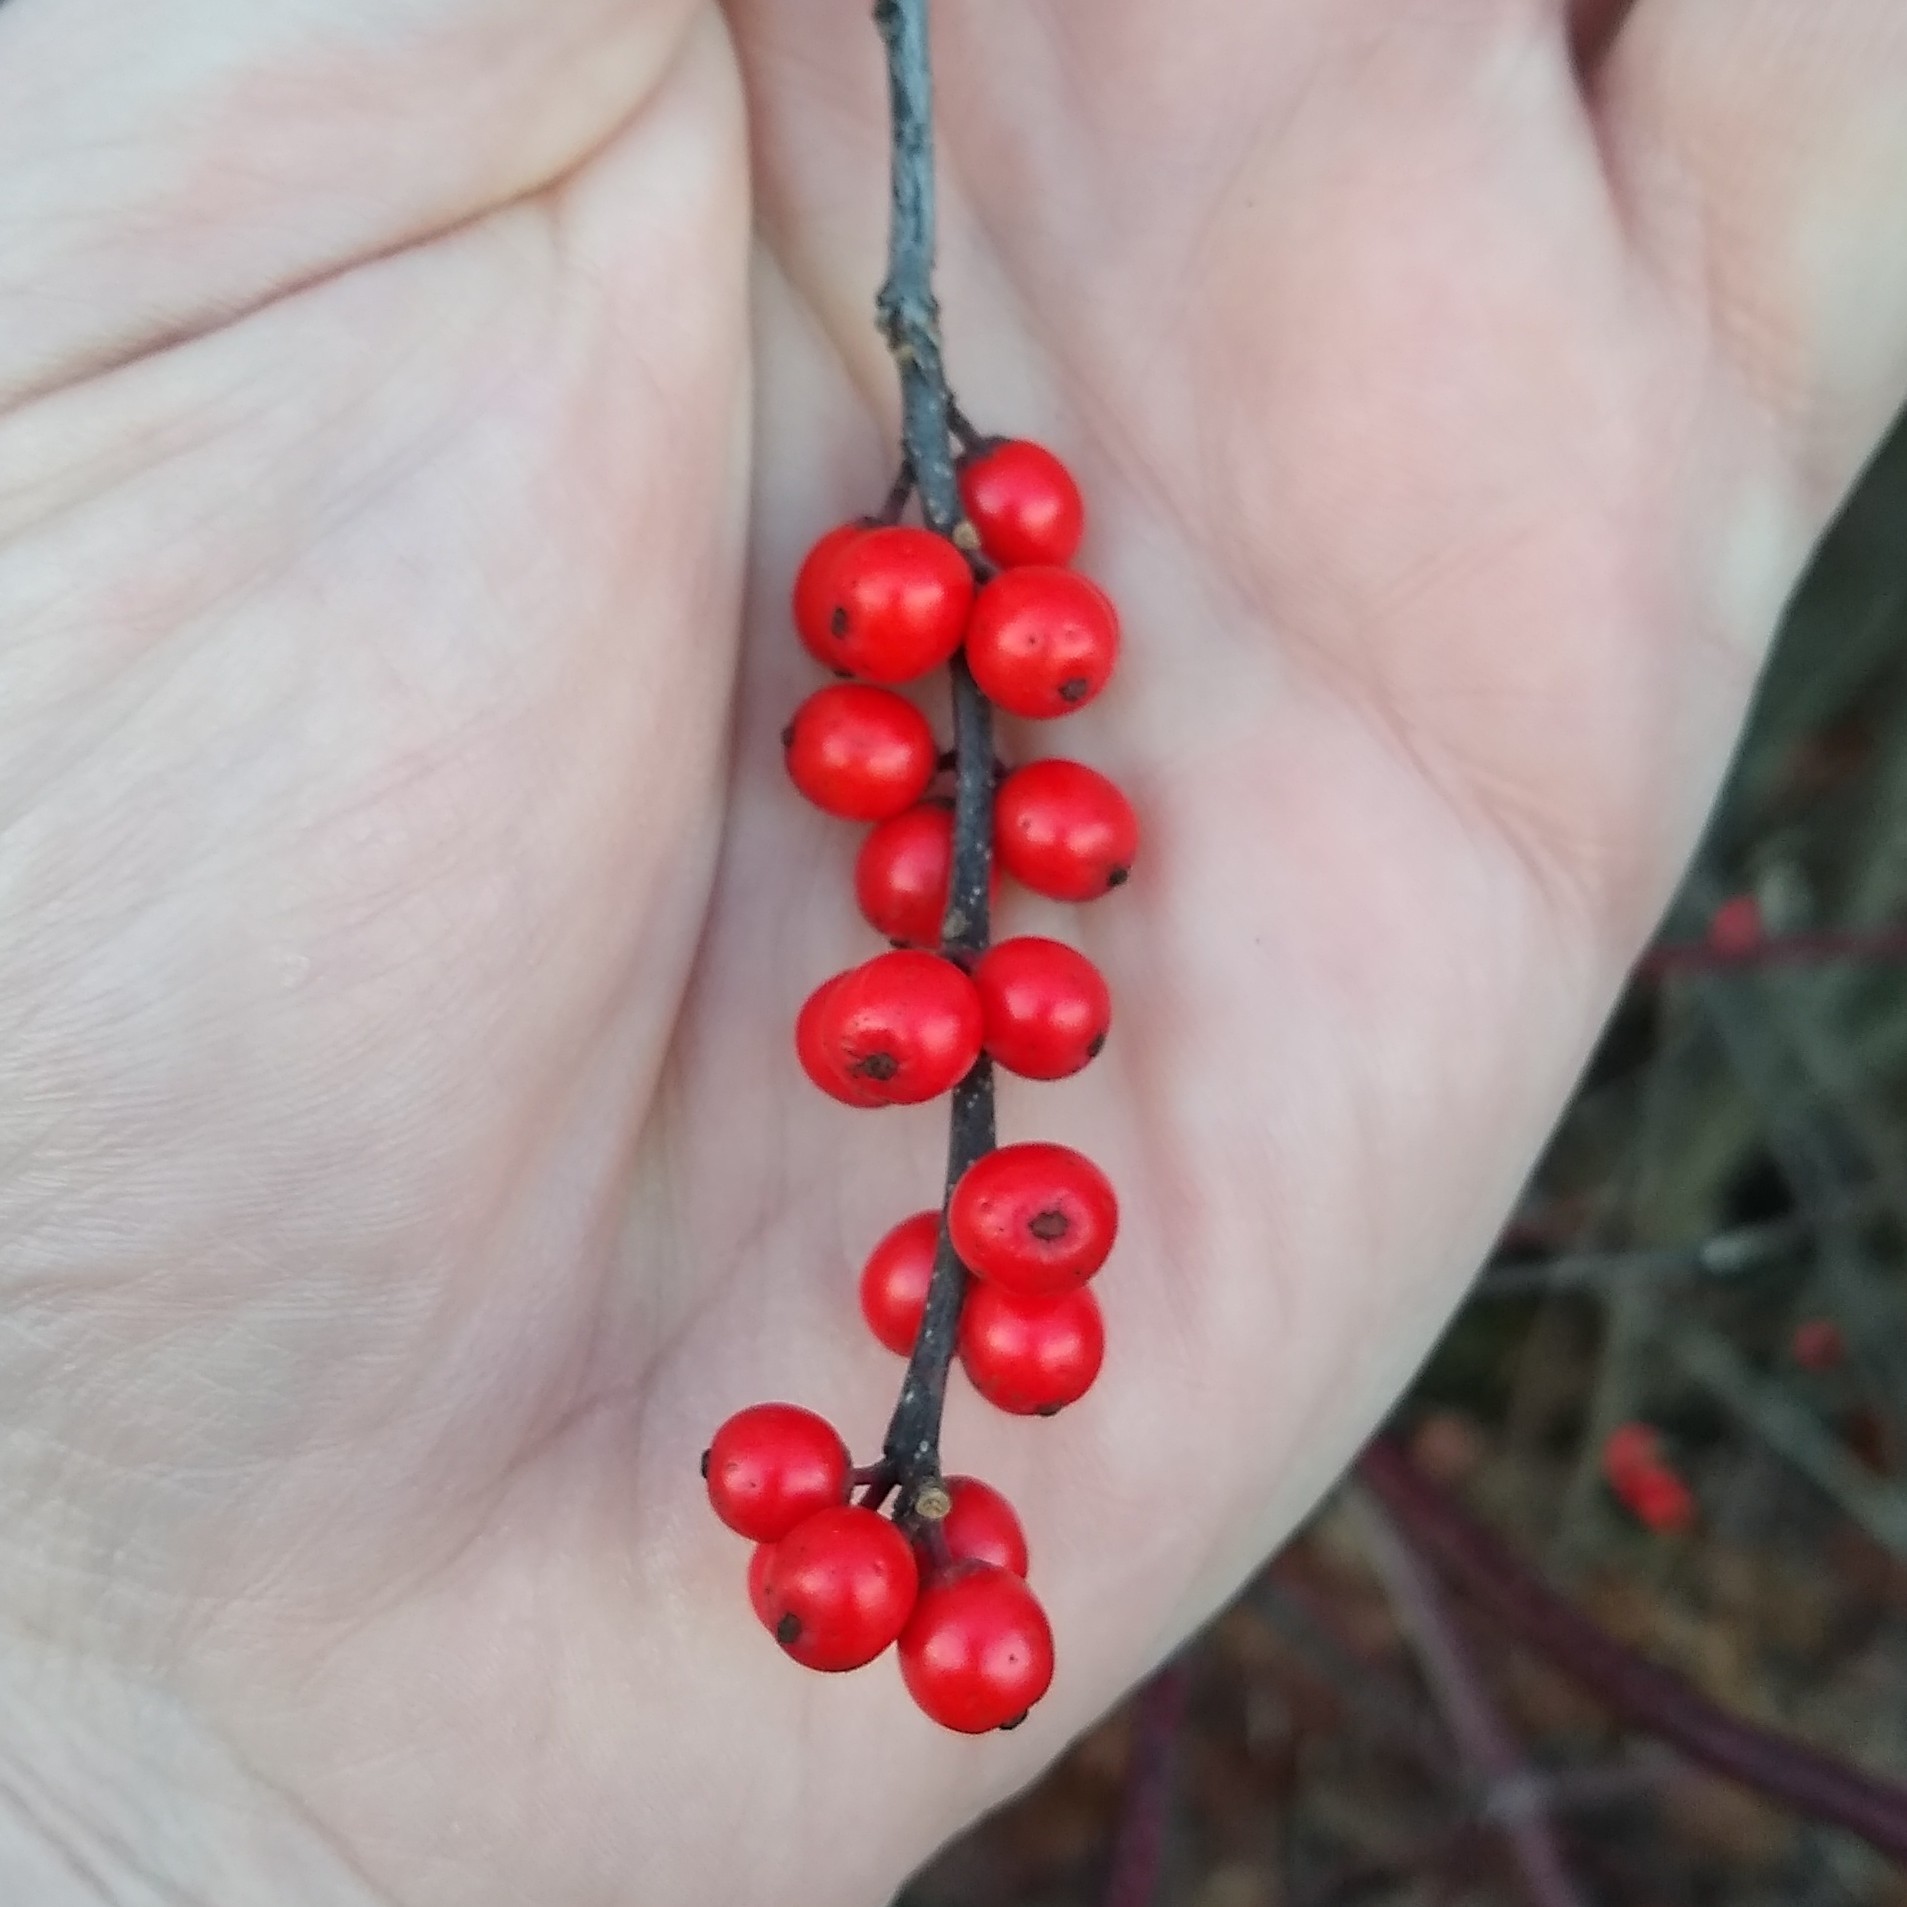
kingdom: Plantae
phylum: Tracheophyta
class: Magnoliopsida
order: Aquifoliales
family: Aquifoliaceae
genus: Ilex
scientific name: Ilex verticillata
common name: Virginia winterberry
